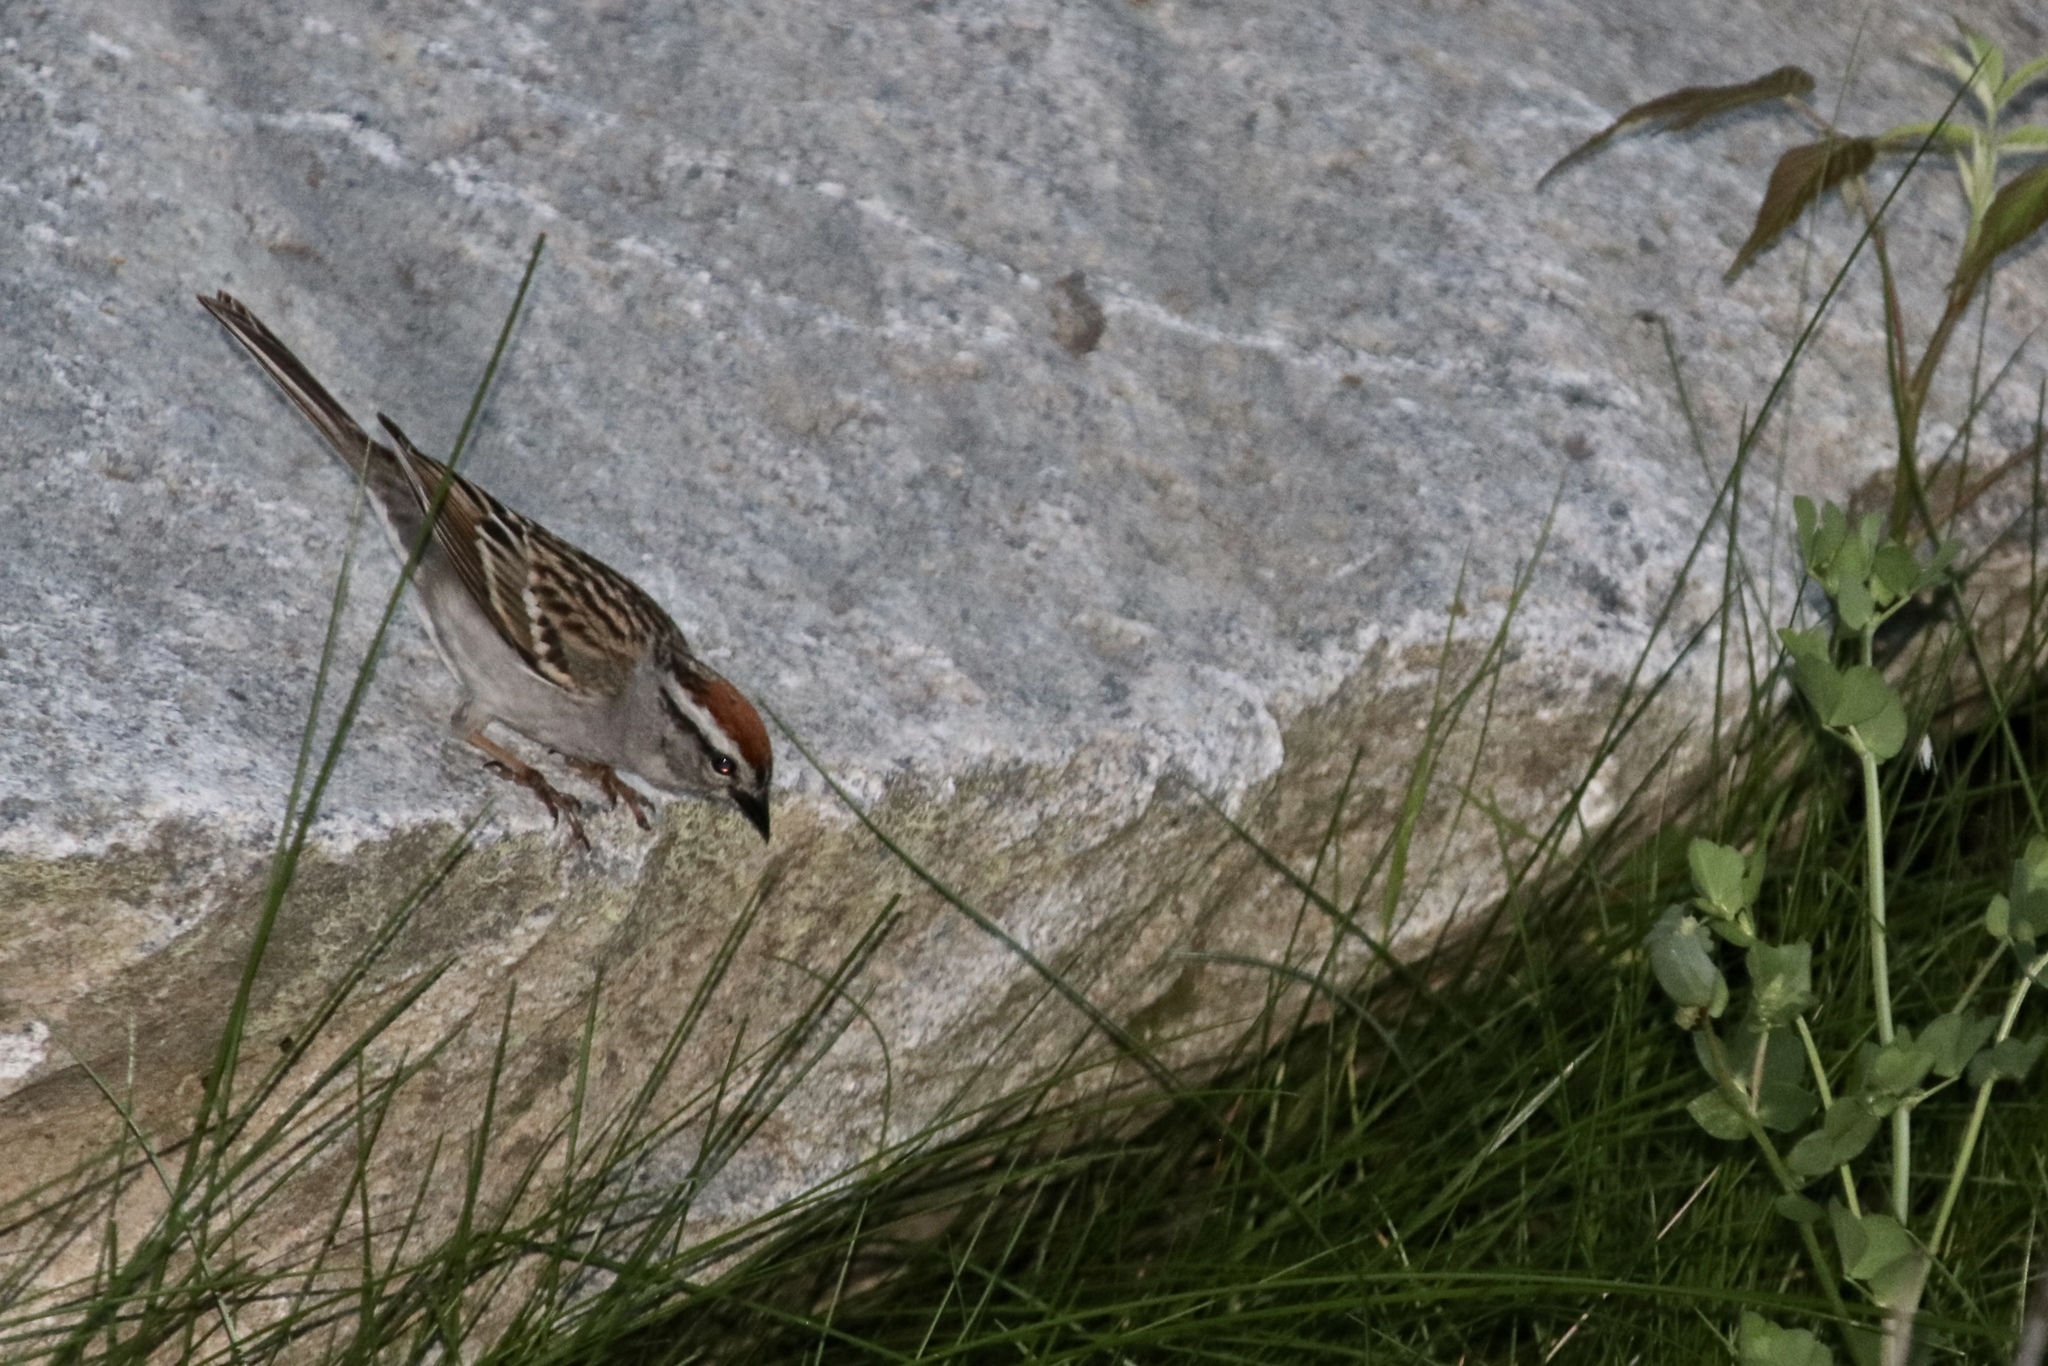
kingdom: Animalia
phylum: Chordata
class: Aves
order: Passeriformes
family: Passerellidae
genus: Spizella
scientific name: Spizella passerina
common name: Chipping sparrow
